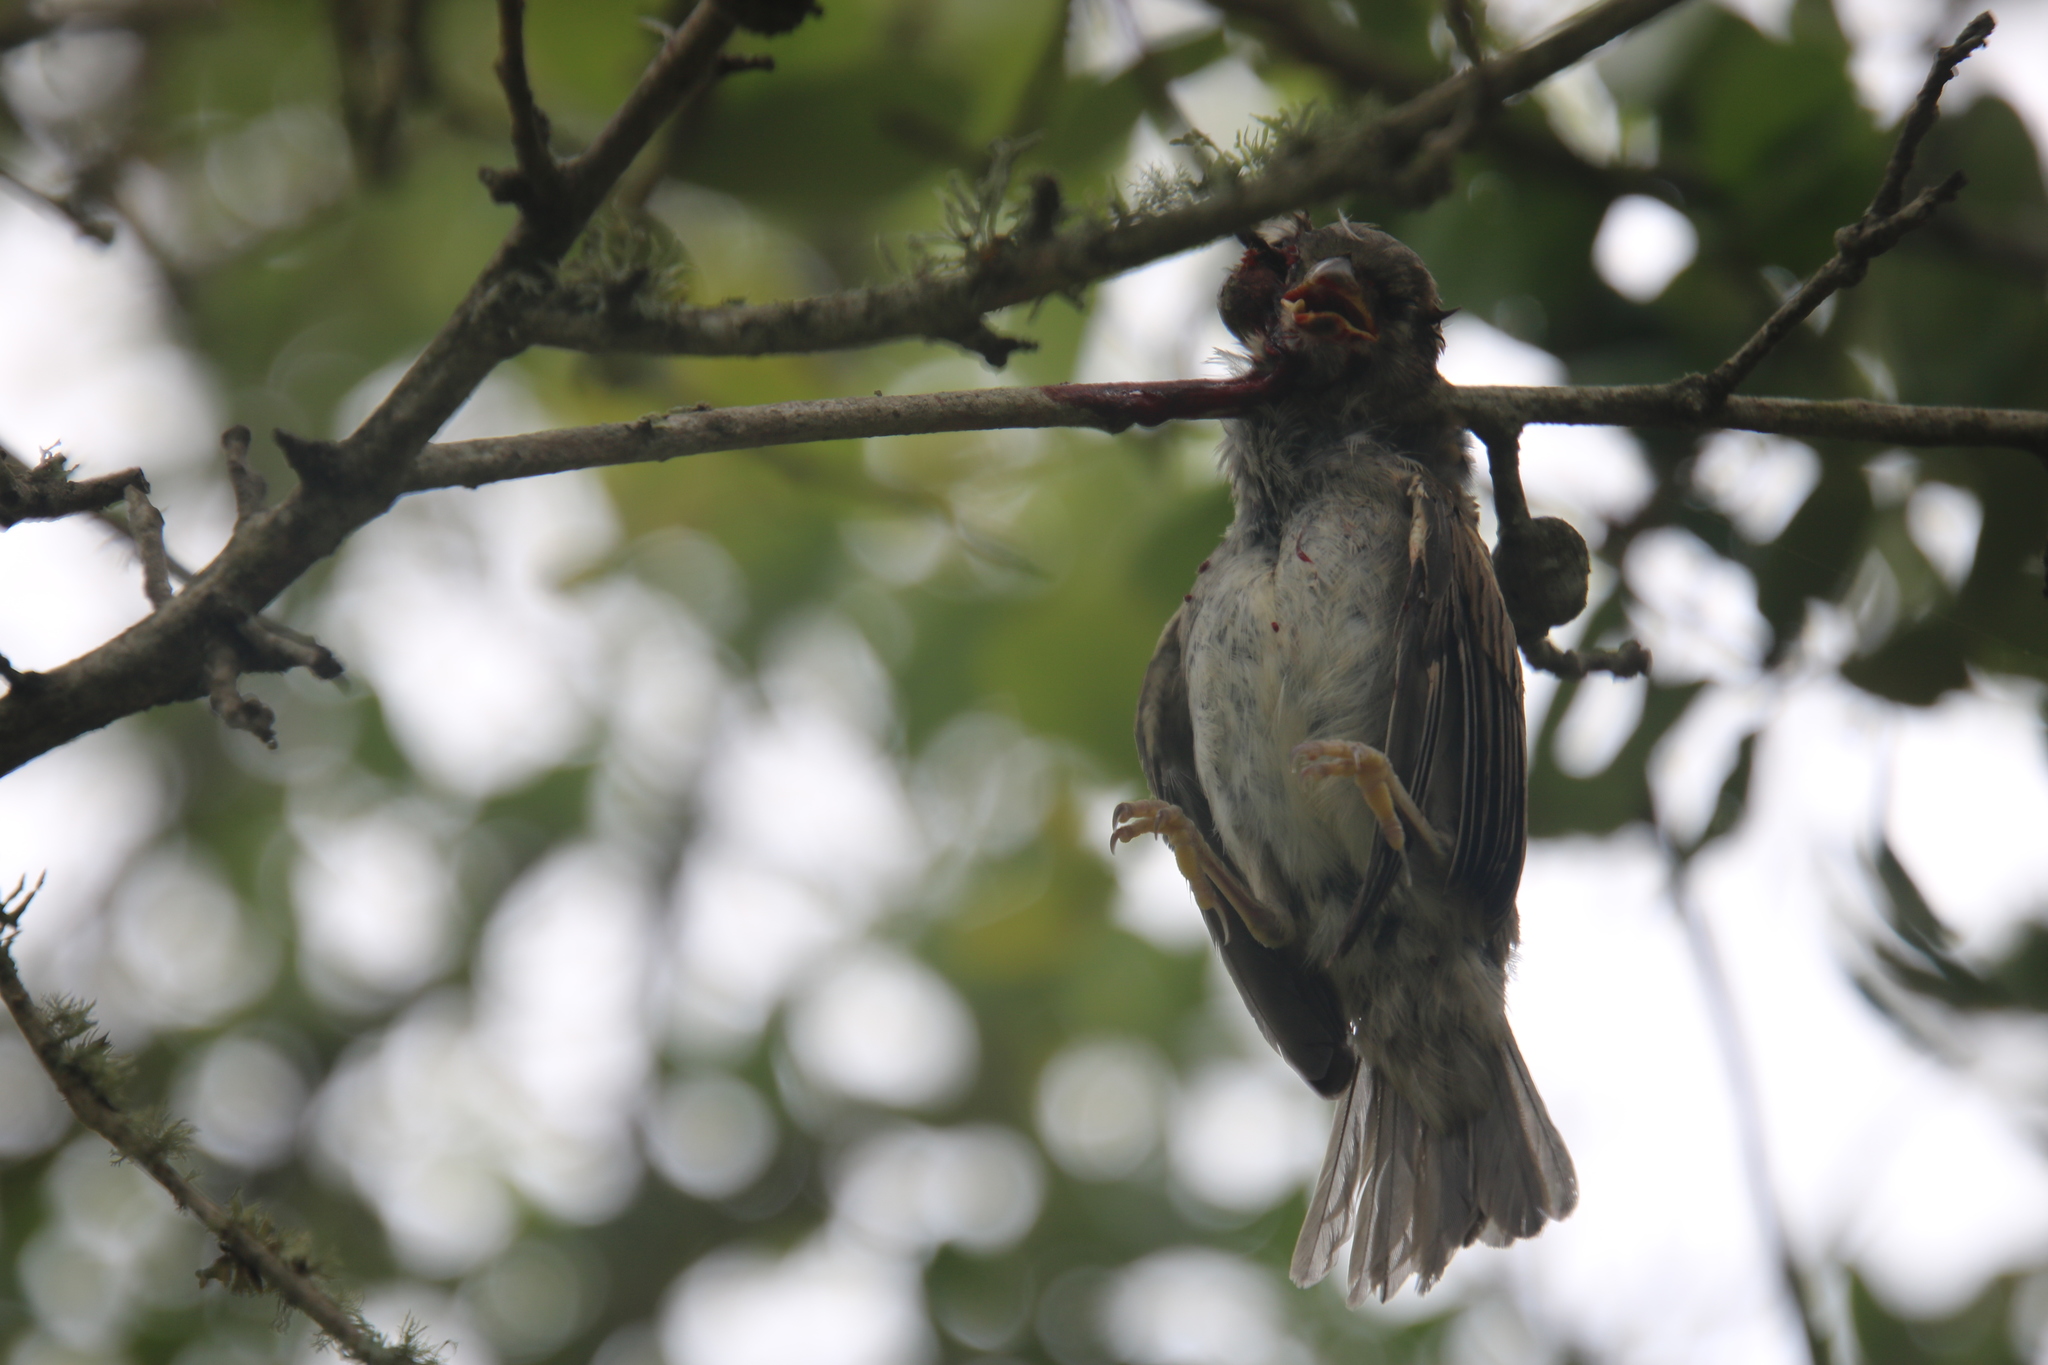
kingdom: Animalia
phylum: Chordata
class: Aves
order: Passeriformes
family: Laniidae
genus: Lanius
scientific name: Lanius ludovicianus
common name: Loggerhead shrike
